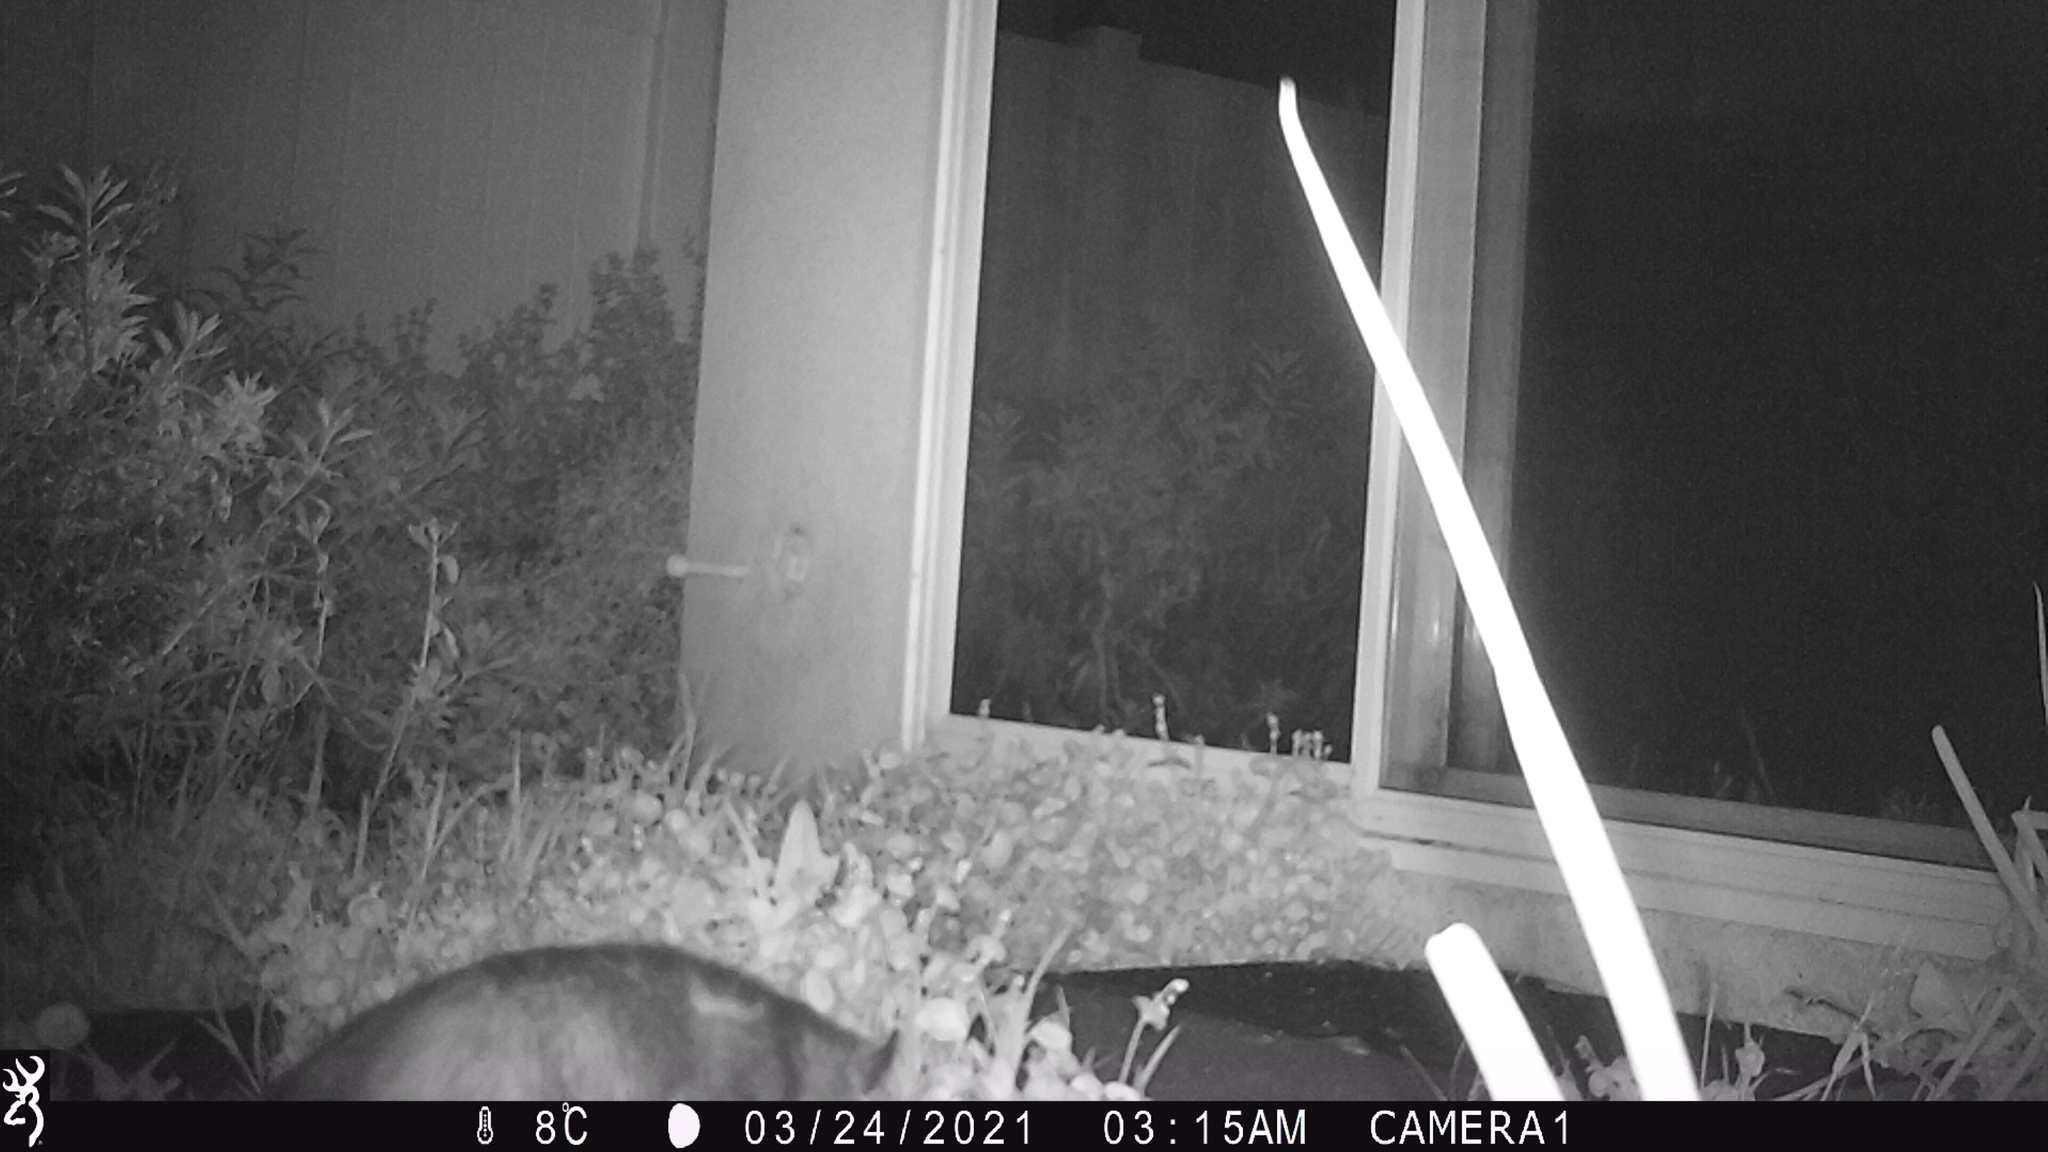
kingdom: Animalia
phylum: Chordata
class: Mammalia
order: Didelphimorphia
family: Didelphidae
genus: Didelphis
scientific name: Didelphis virginiana
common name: Virginia opossum
